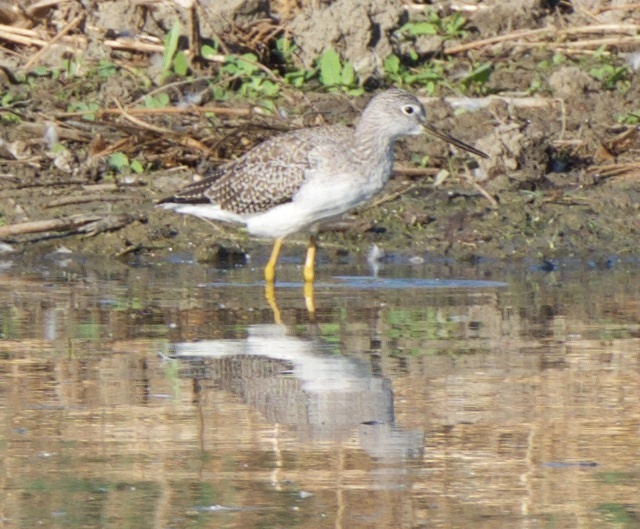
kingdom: Animalia
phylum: Chordata
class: Aves
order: Charadriiformes
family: Scolopacidae
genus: Tringa
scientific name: Tringa melanoleuca
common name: Greater yellowlegs
